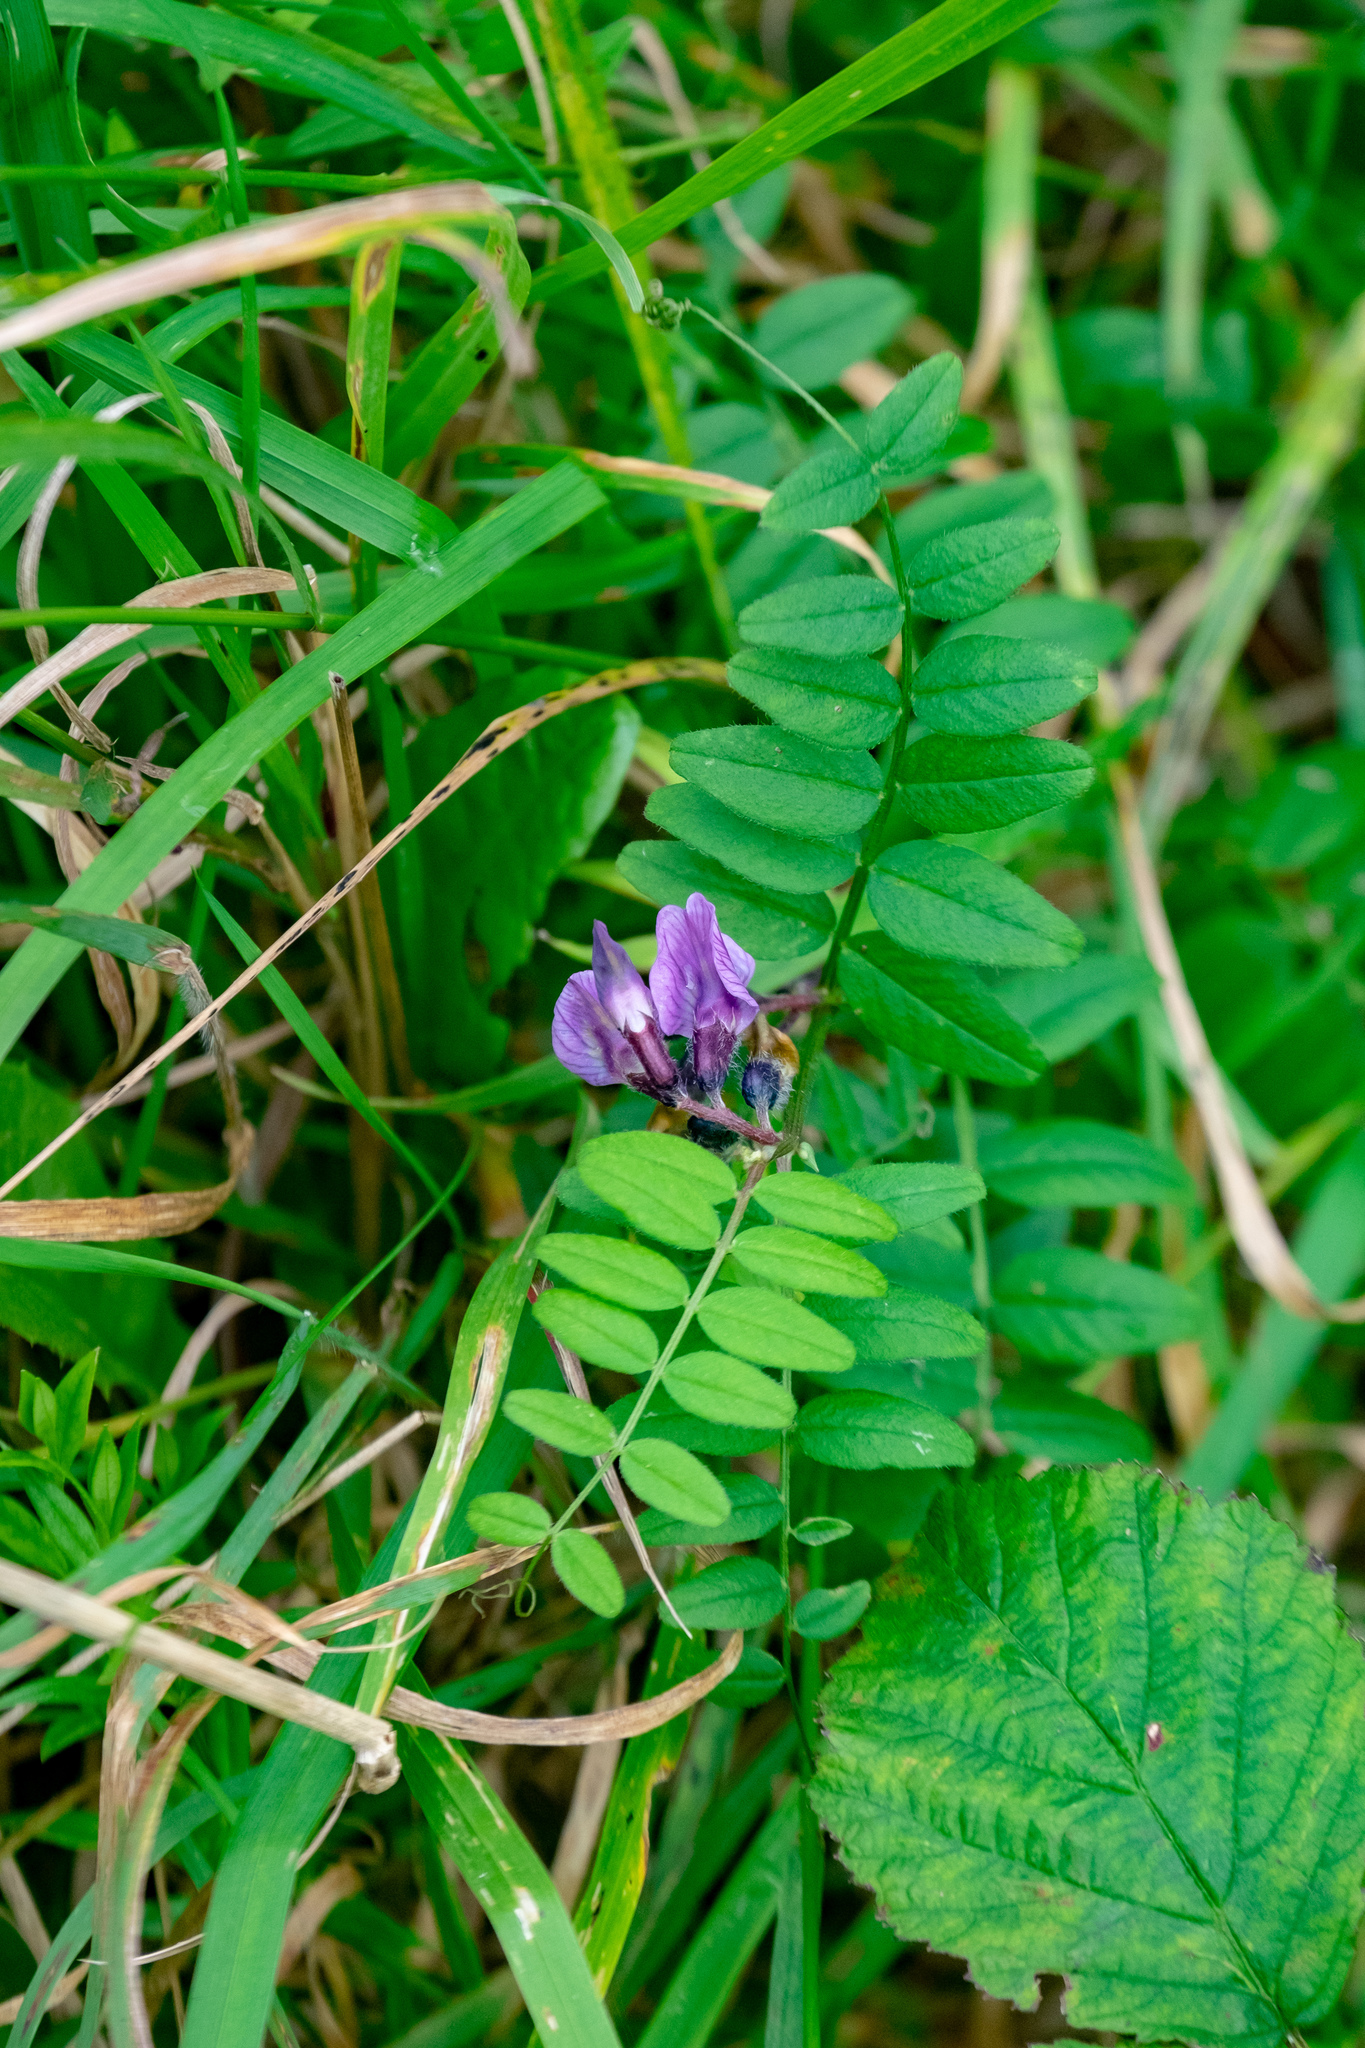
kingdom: Plantae
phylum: Tracheophyta
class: Magnoliopsida
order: Fabales
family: Fabaceae
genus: Vicia
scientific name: Vicia sepium
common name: Bush vetch
